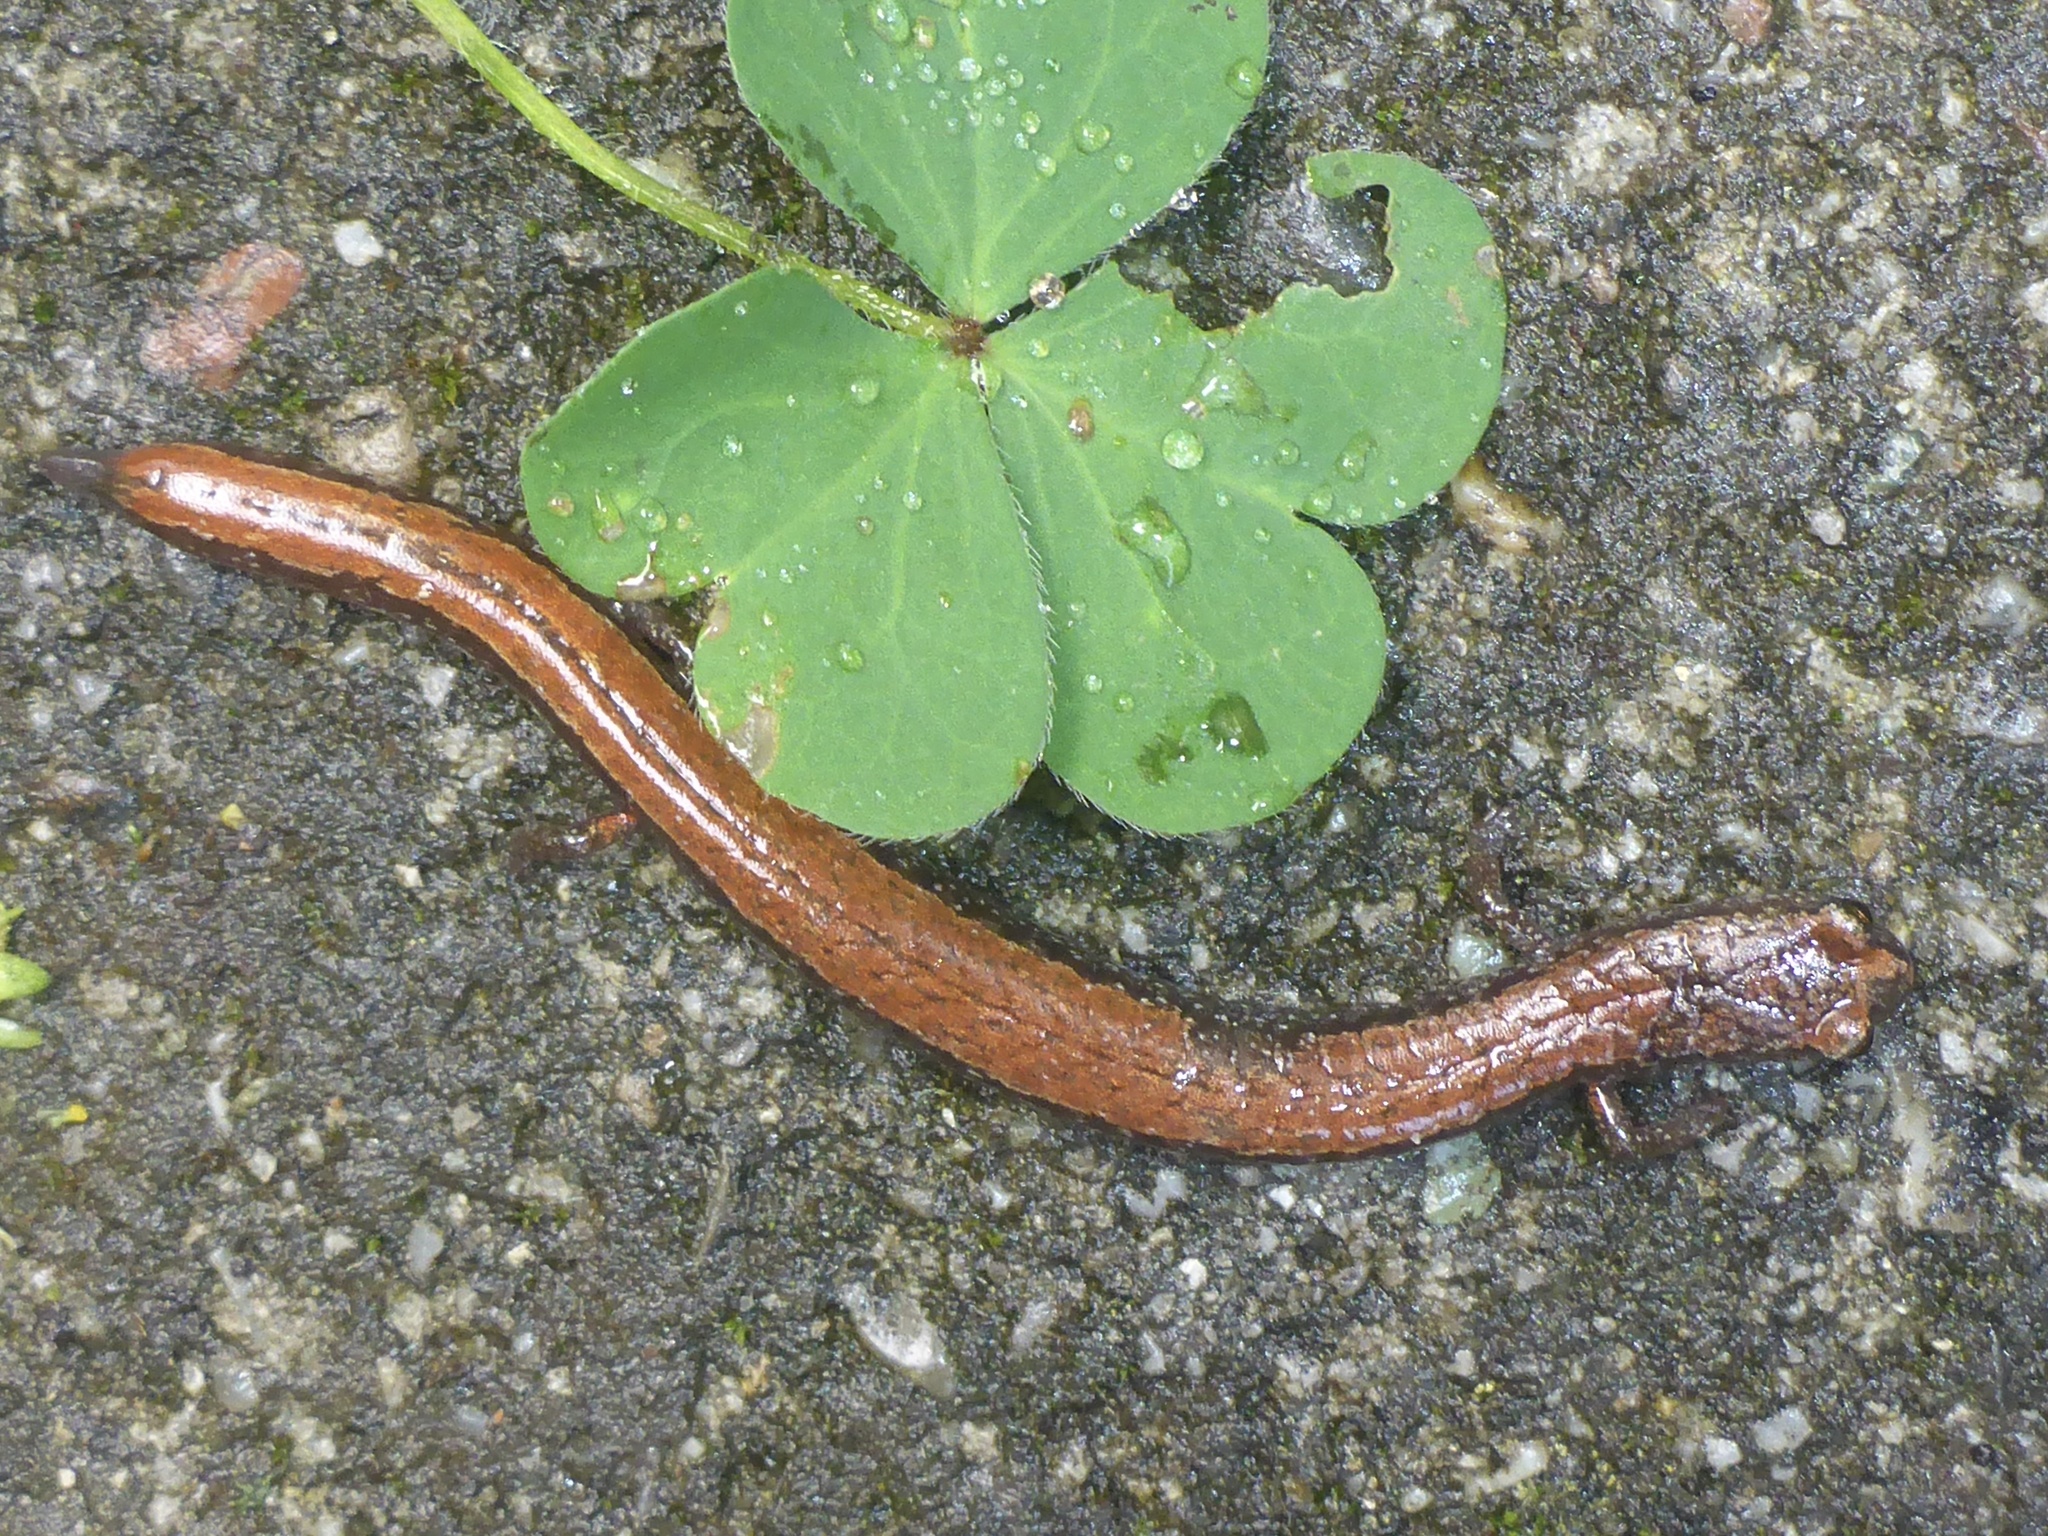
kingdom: Animalia
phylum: Chordata
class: Amphibia
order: Caudata
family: Plethodontidae
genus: Batrachoseps
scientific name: Batrachoseps attenuatus
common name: California slender salamander
